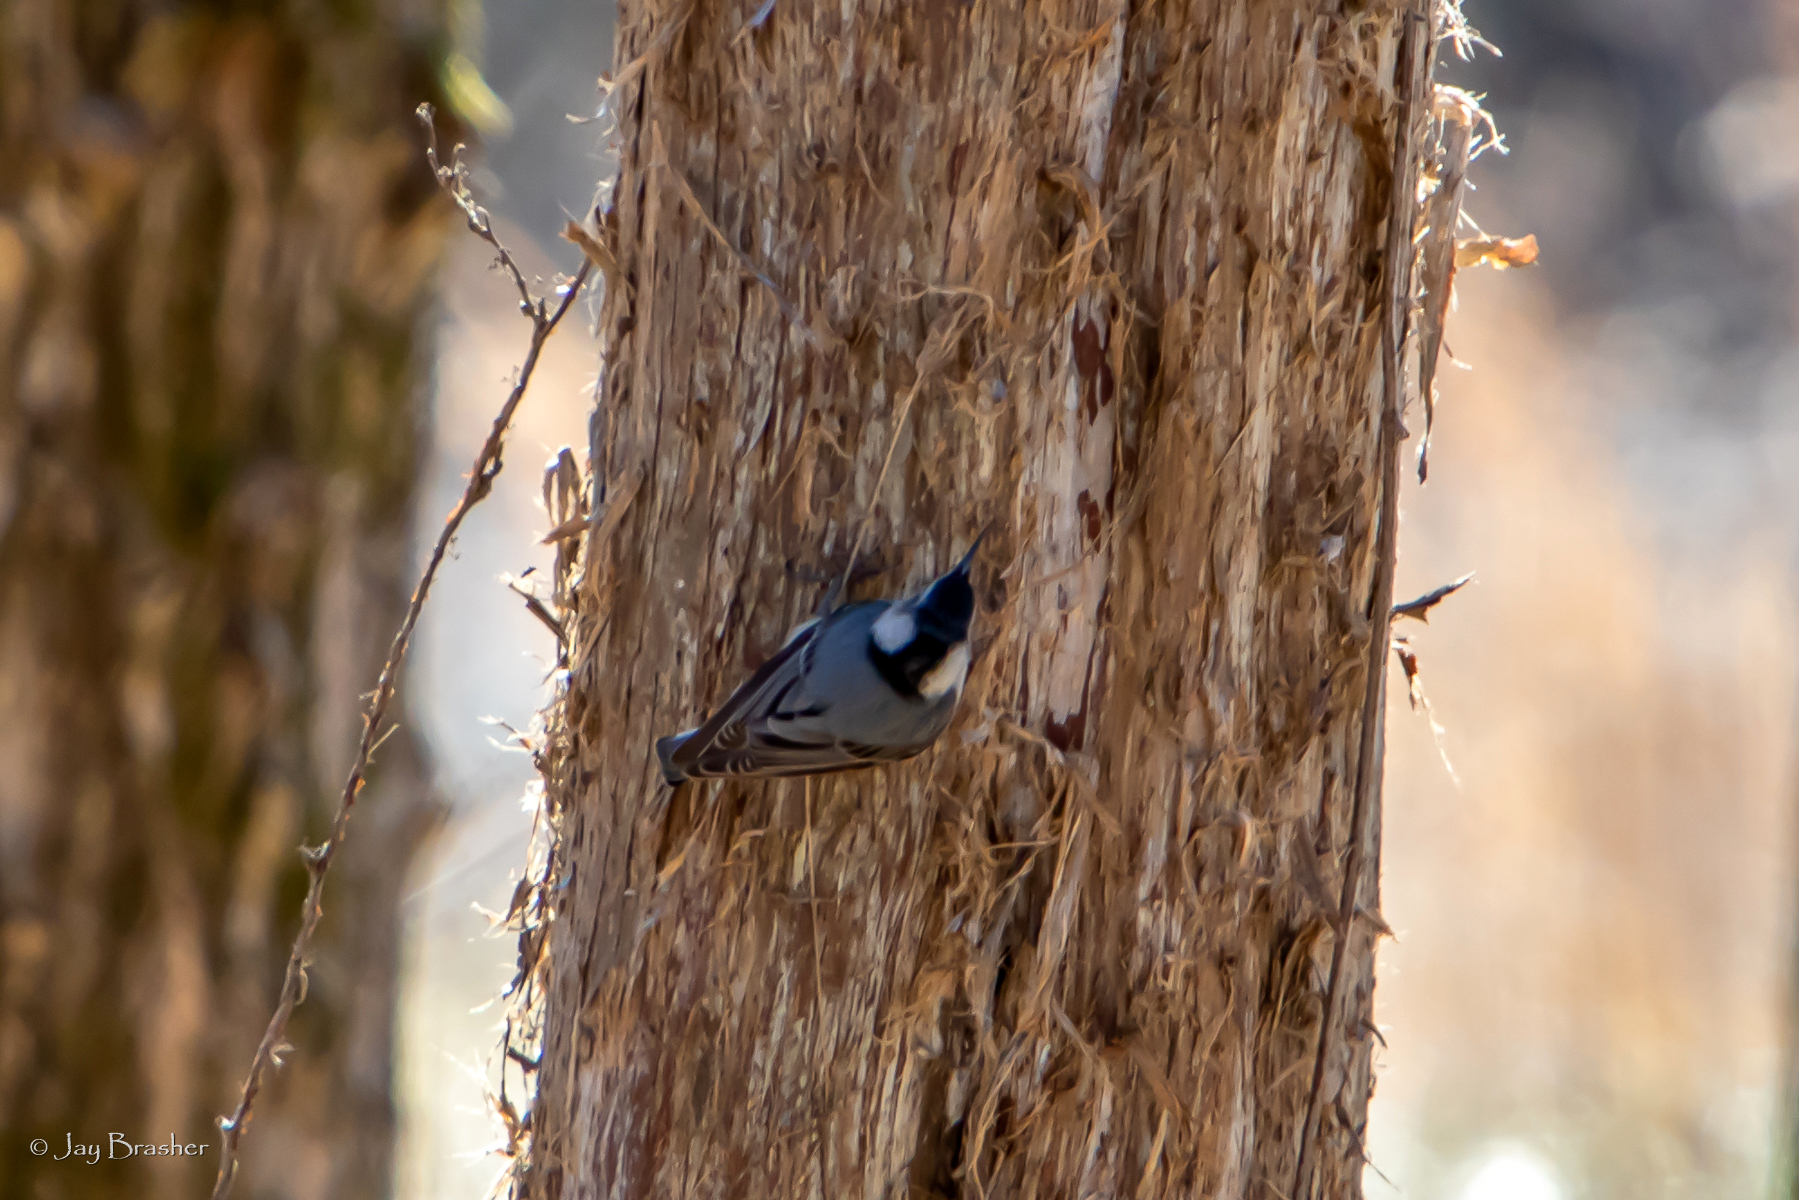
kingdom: Animalia
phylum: Chordata
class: Aves
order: Passeriformes
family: Sittidae
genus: Sitta
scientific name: Sitta carolinensis
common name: White-breasted nuthatch
